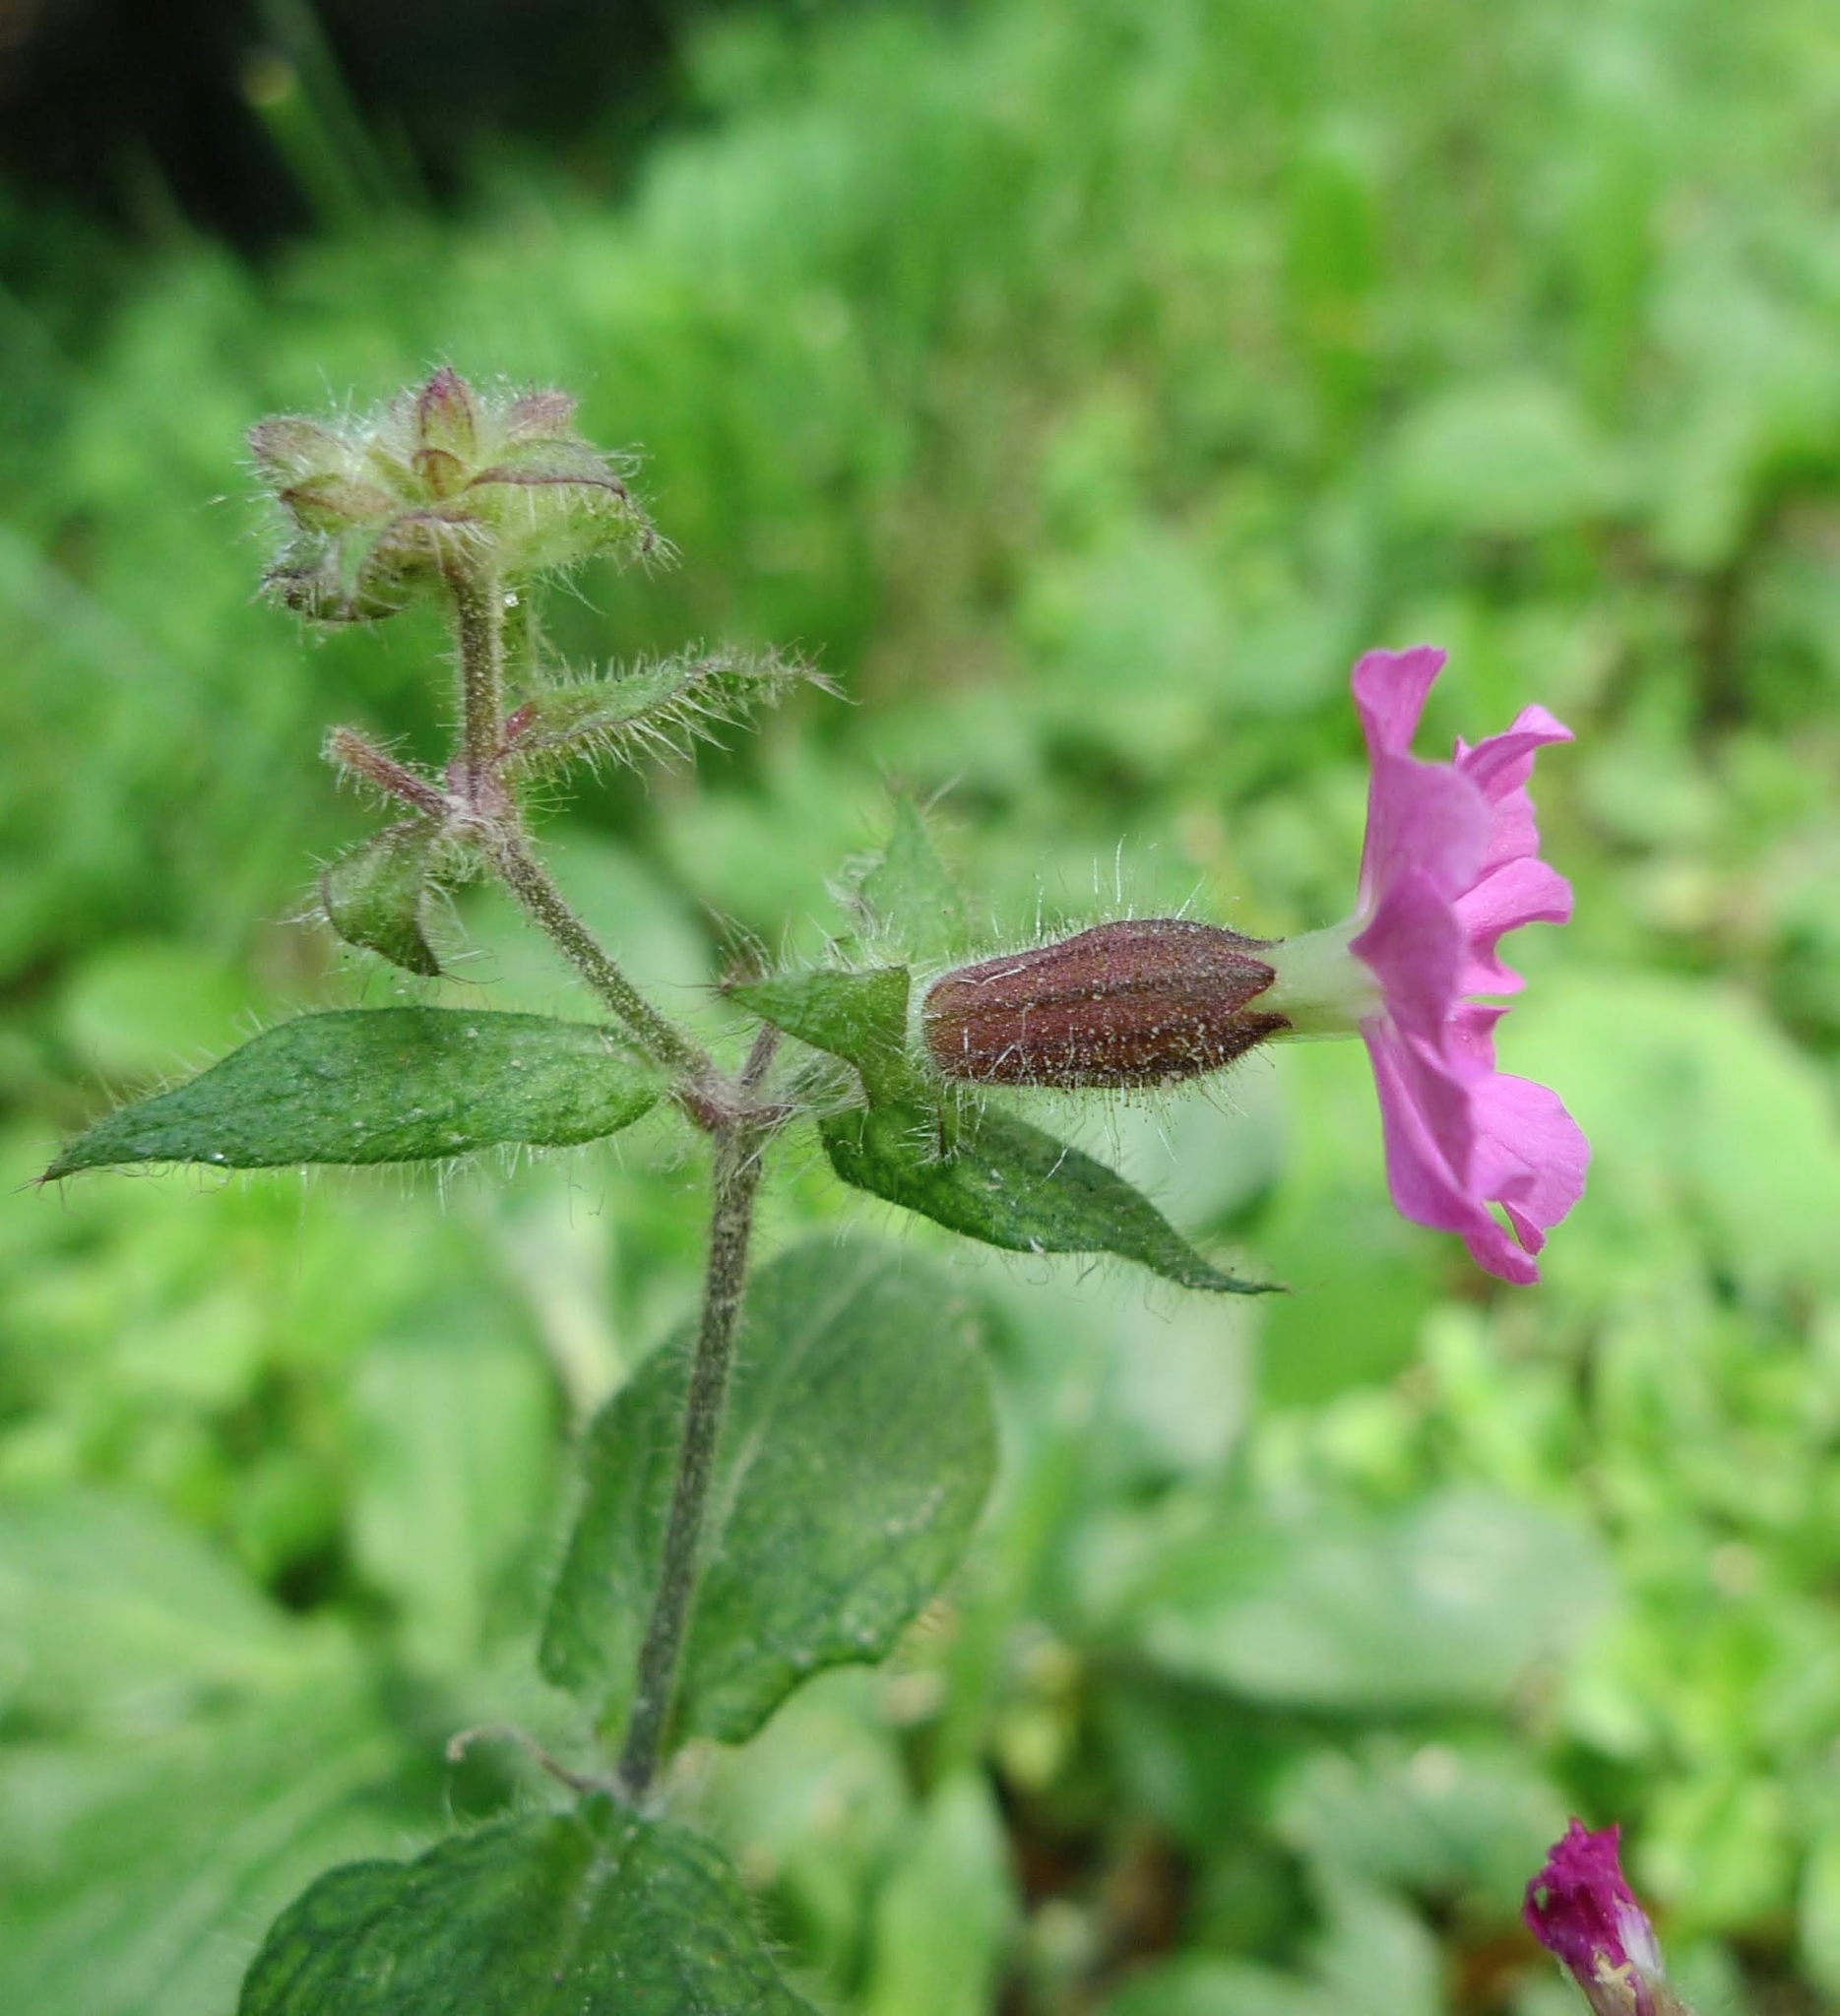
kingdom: Plantae
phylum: Tracheophyta
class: Magnoliopsida
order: Caryophyllales
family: Caryophyllaceae
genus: Silene
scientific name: Silene dioica
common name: Red campion
